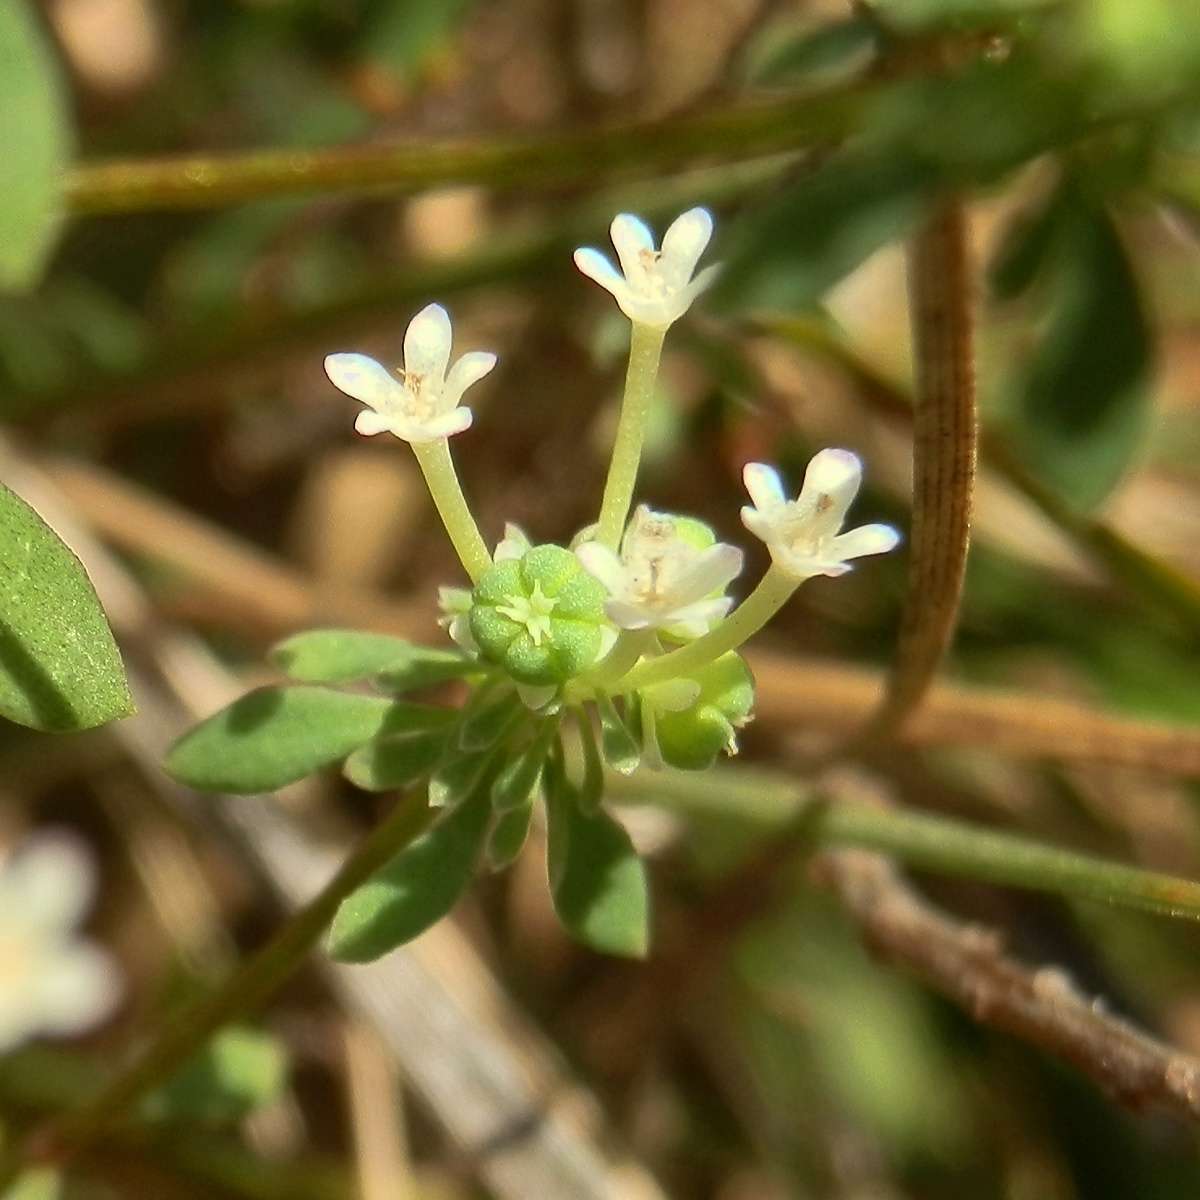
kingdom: Plantae
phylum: Tracheophyta
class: Magnoliopsida
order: Malpighiales
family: Phyllanthaceae
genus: Poranthera
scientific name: Poranthera microphylla
